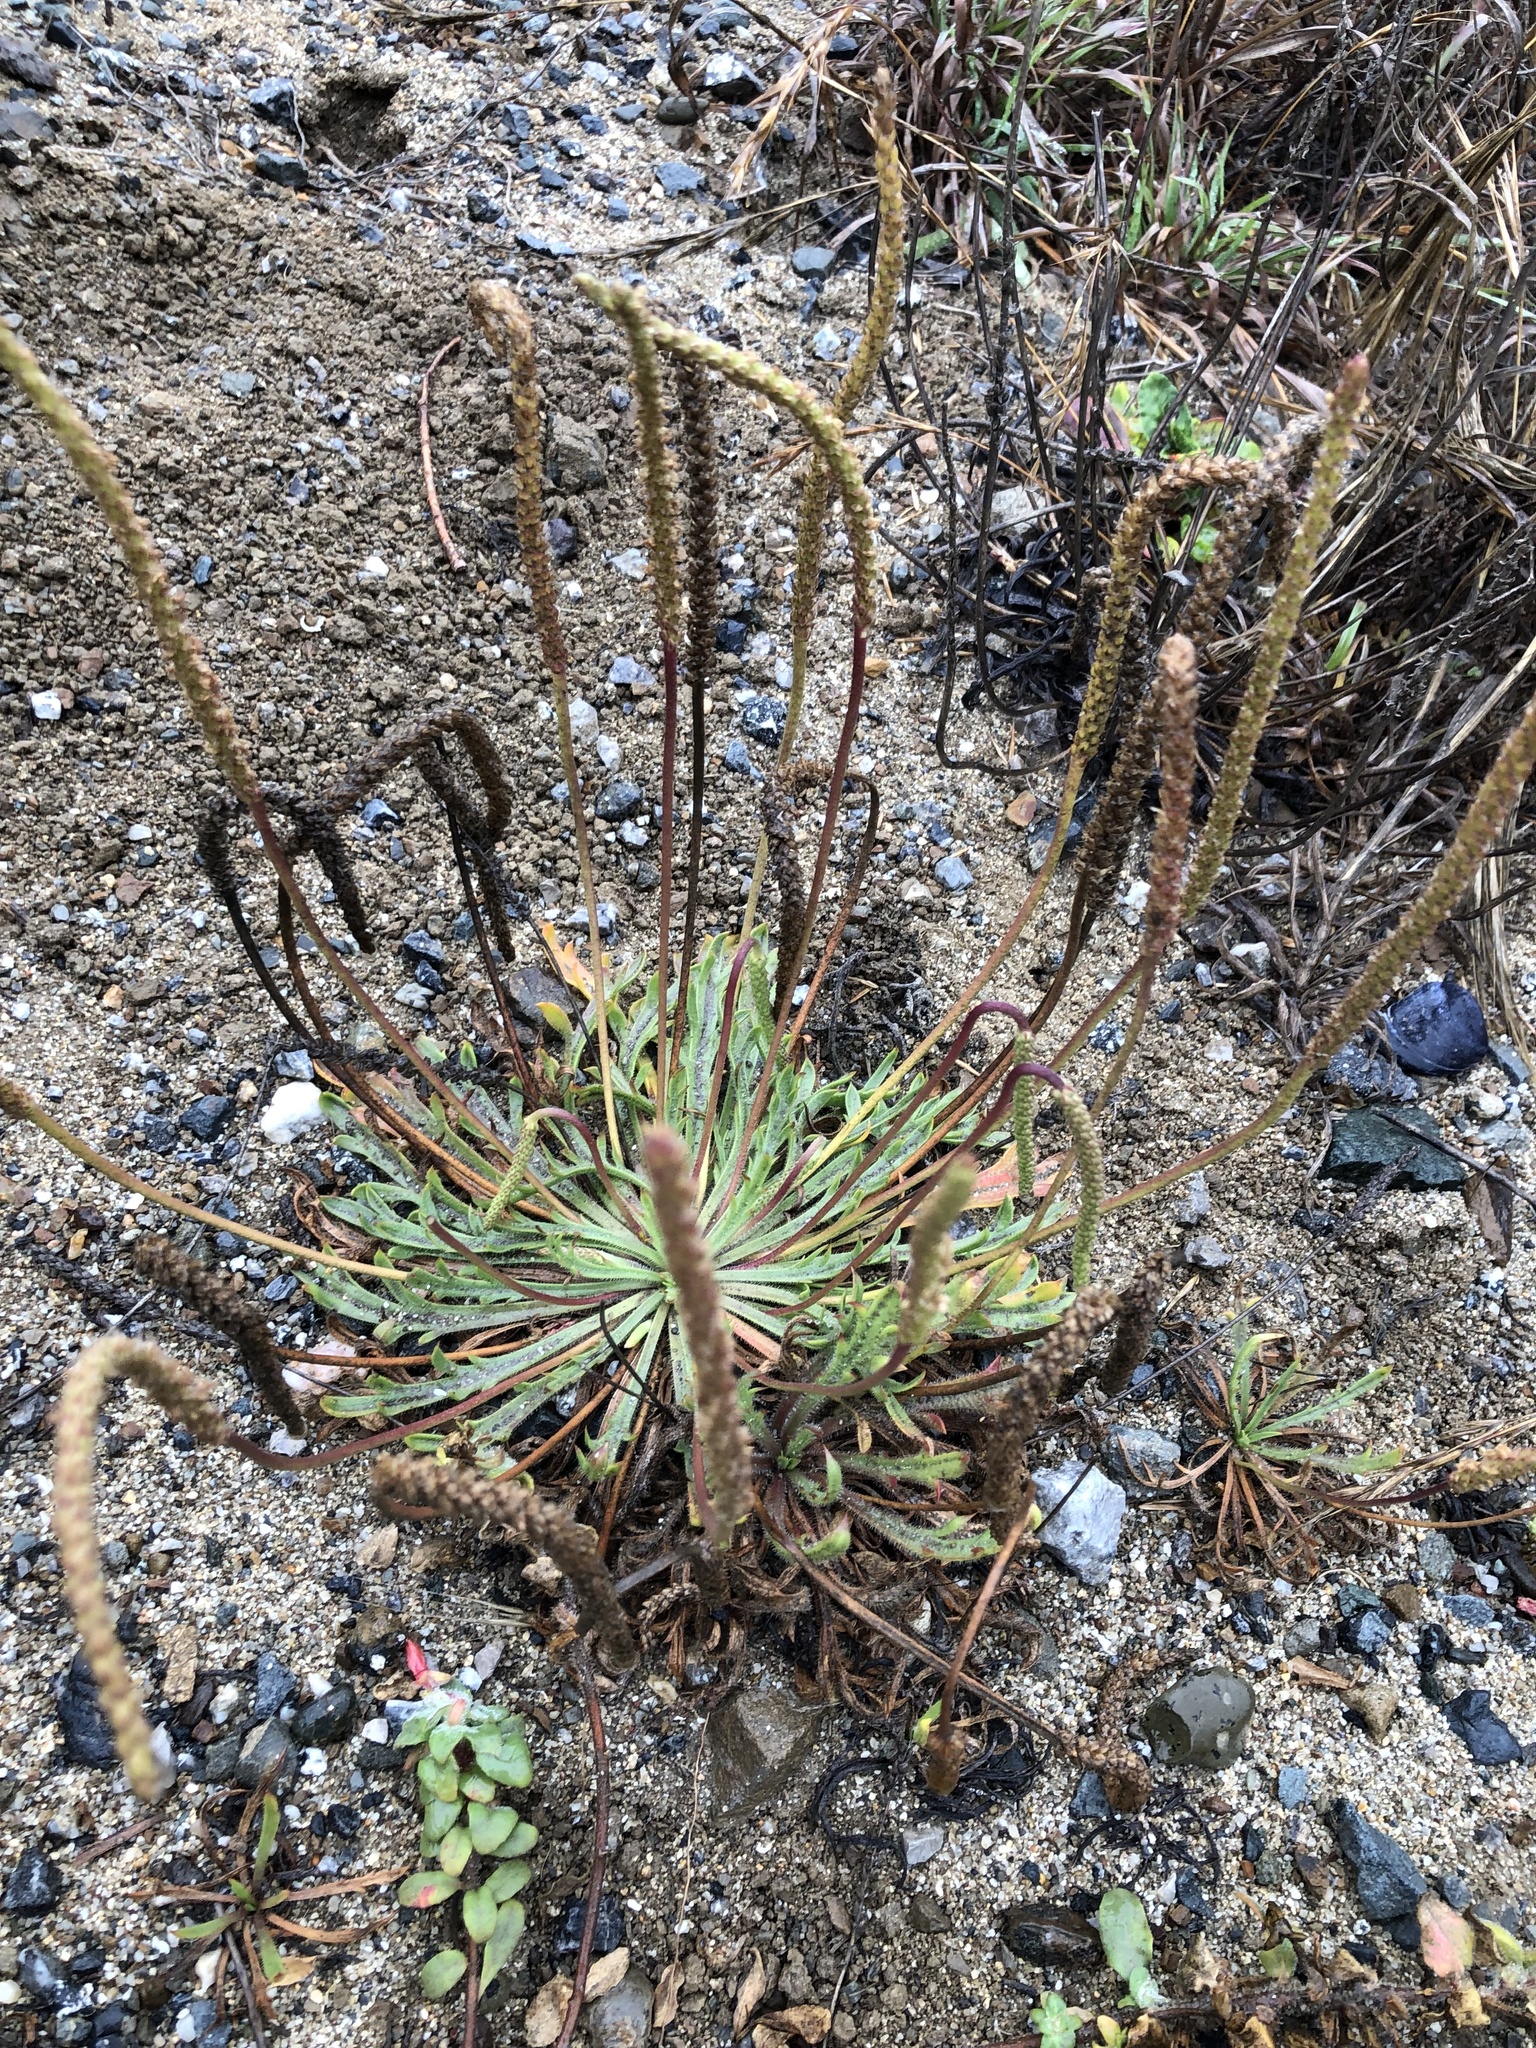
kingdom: Plantae
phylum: Tracheophyta
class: Magnoliopsida
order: Lamiales
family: Plantaginaceae
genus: Plantago
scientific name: Plantago coronopus
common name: Buck's-horn plantain
